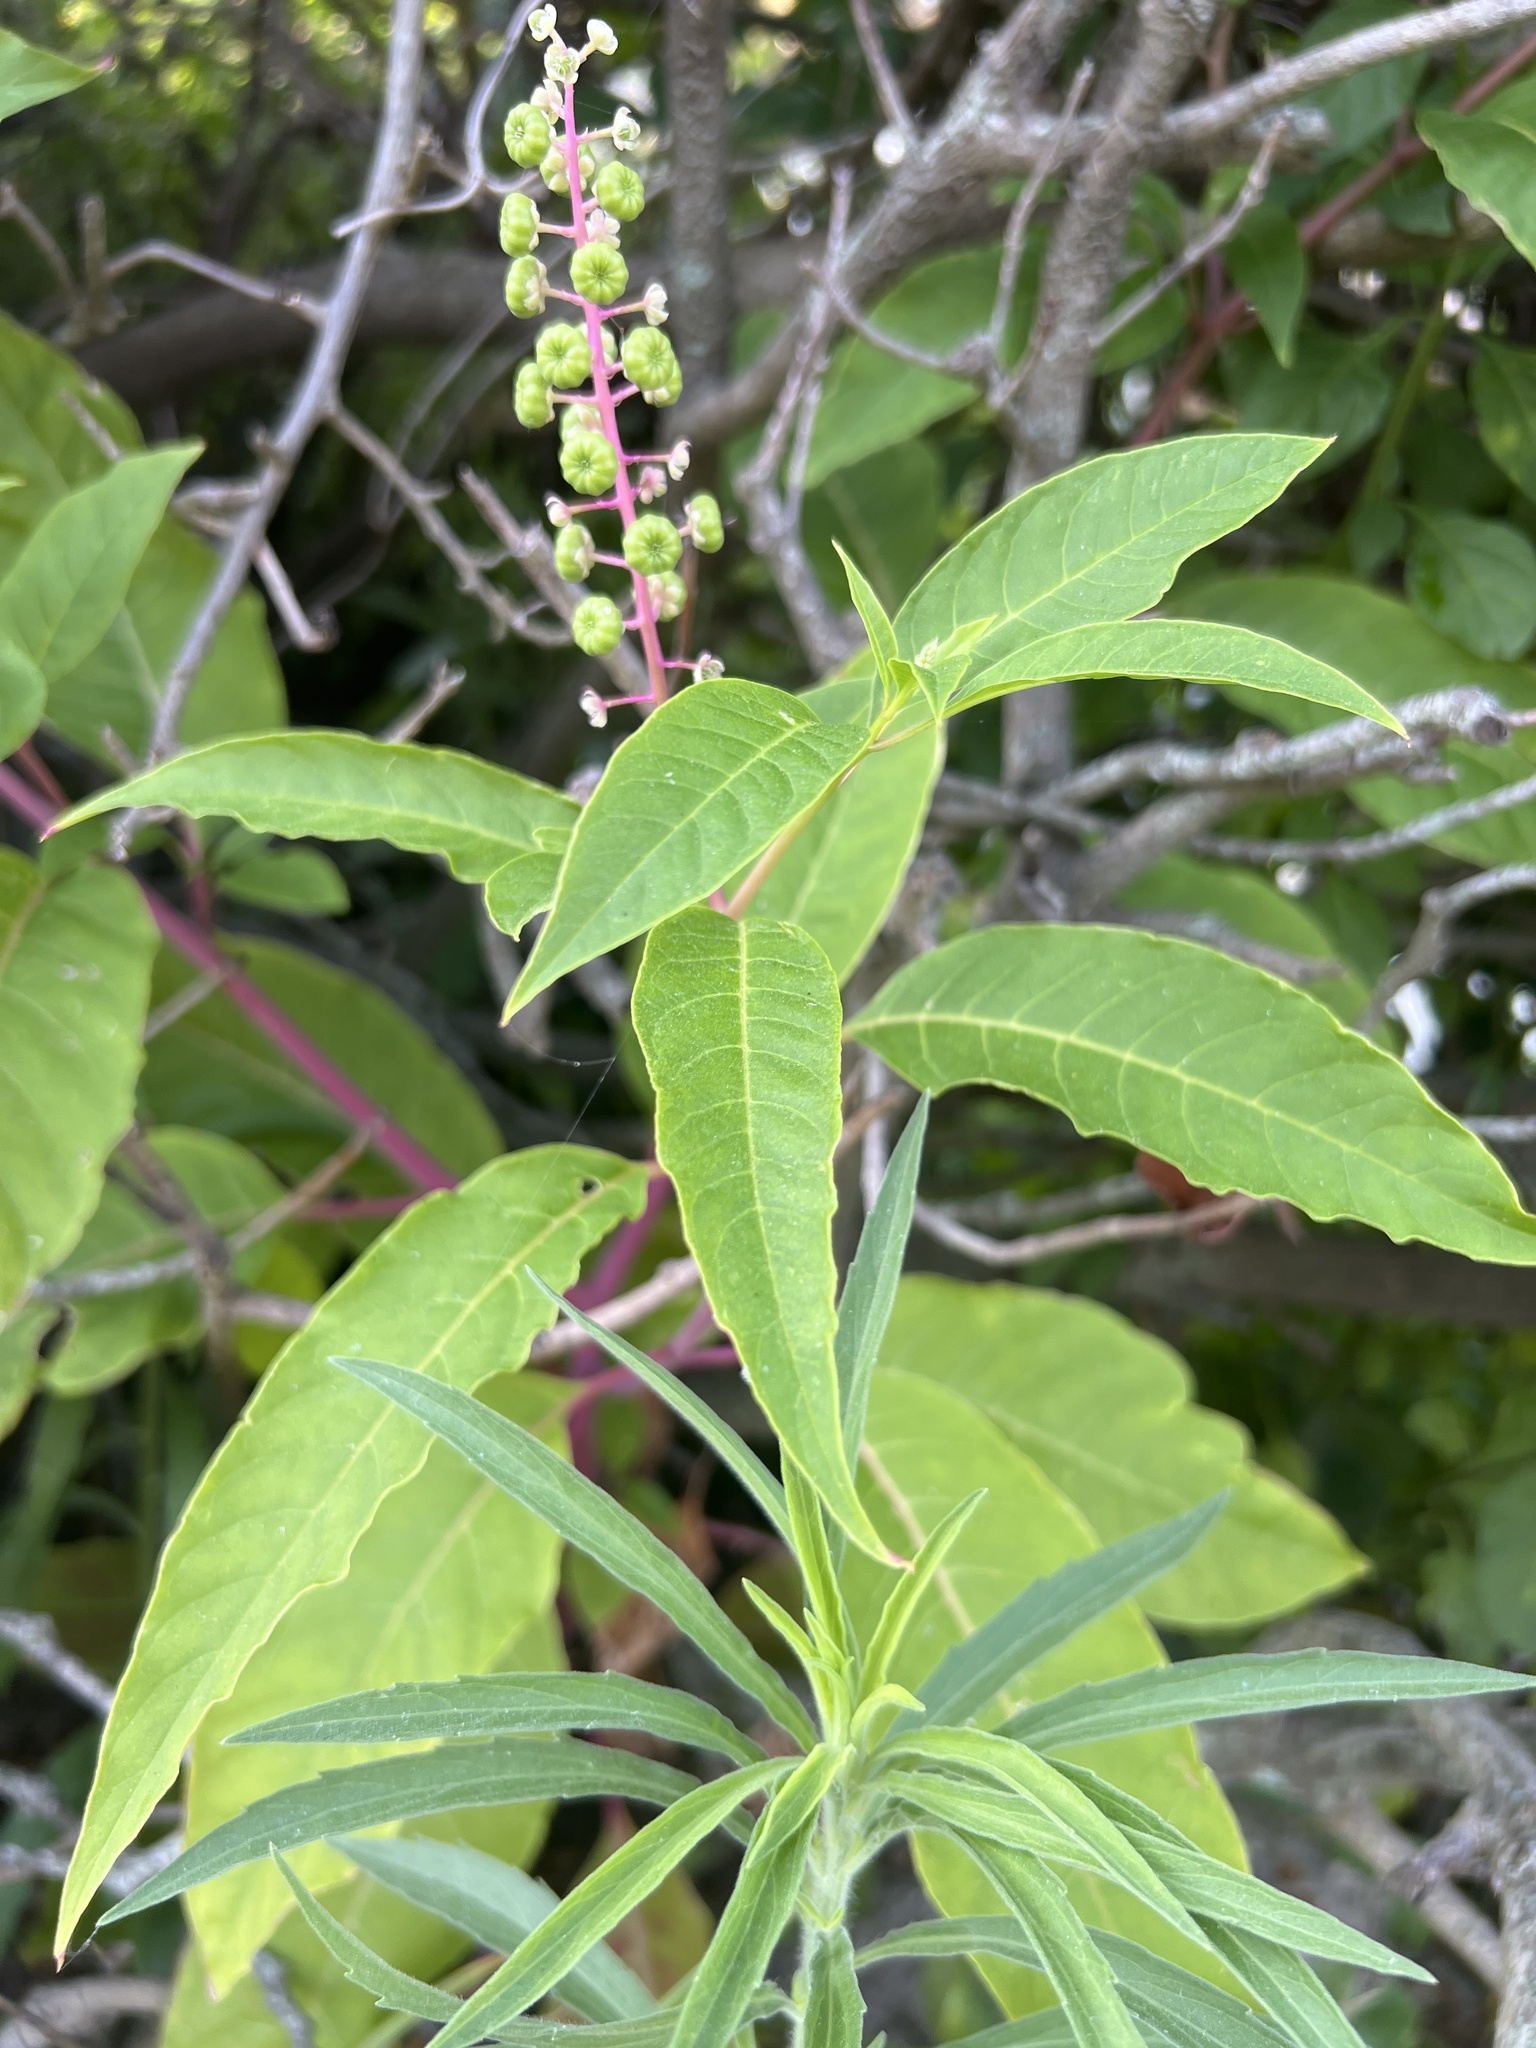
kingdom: Plantae
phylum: Tracheophyta
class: Magnoliopsida
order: Caryophyllales
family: Phytolaccaceae
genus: Phytolacca
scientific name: Phytolacca americana
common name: American pokeweed
